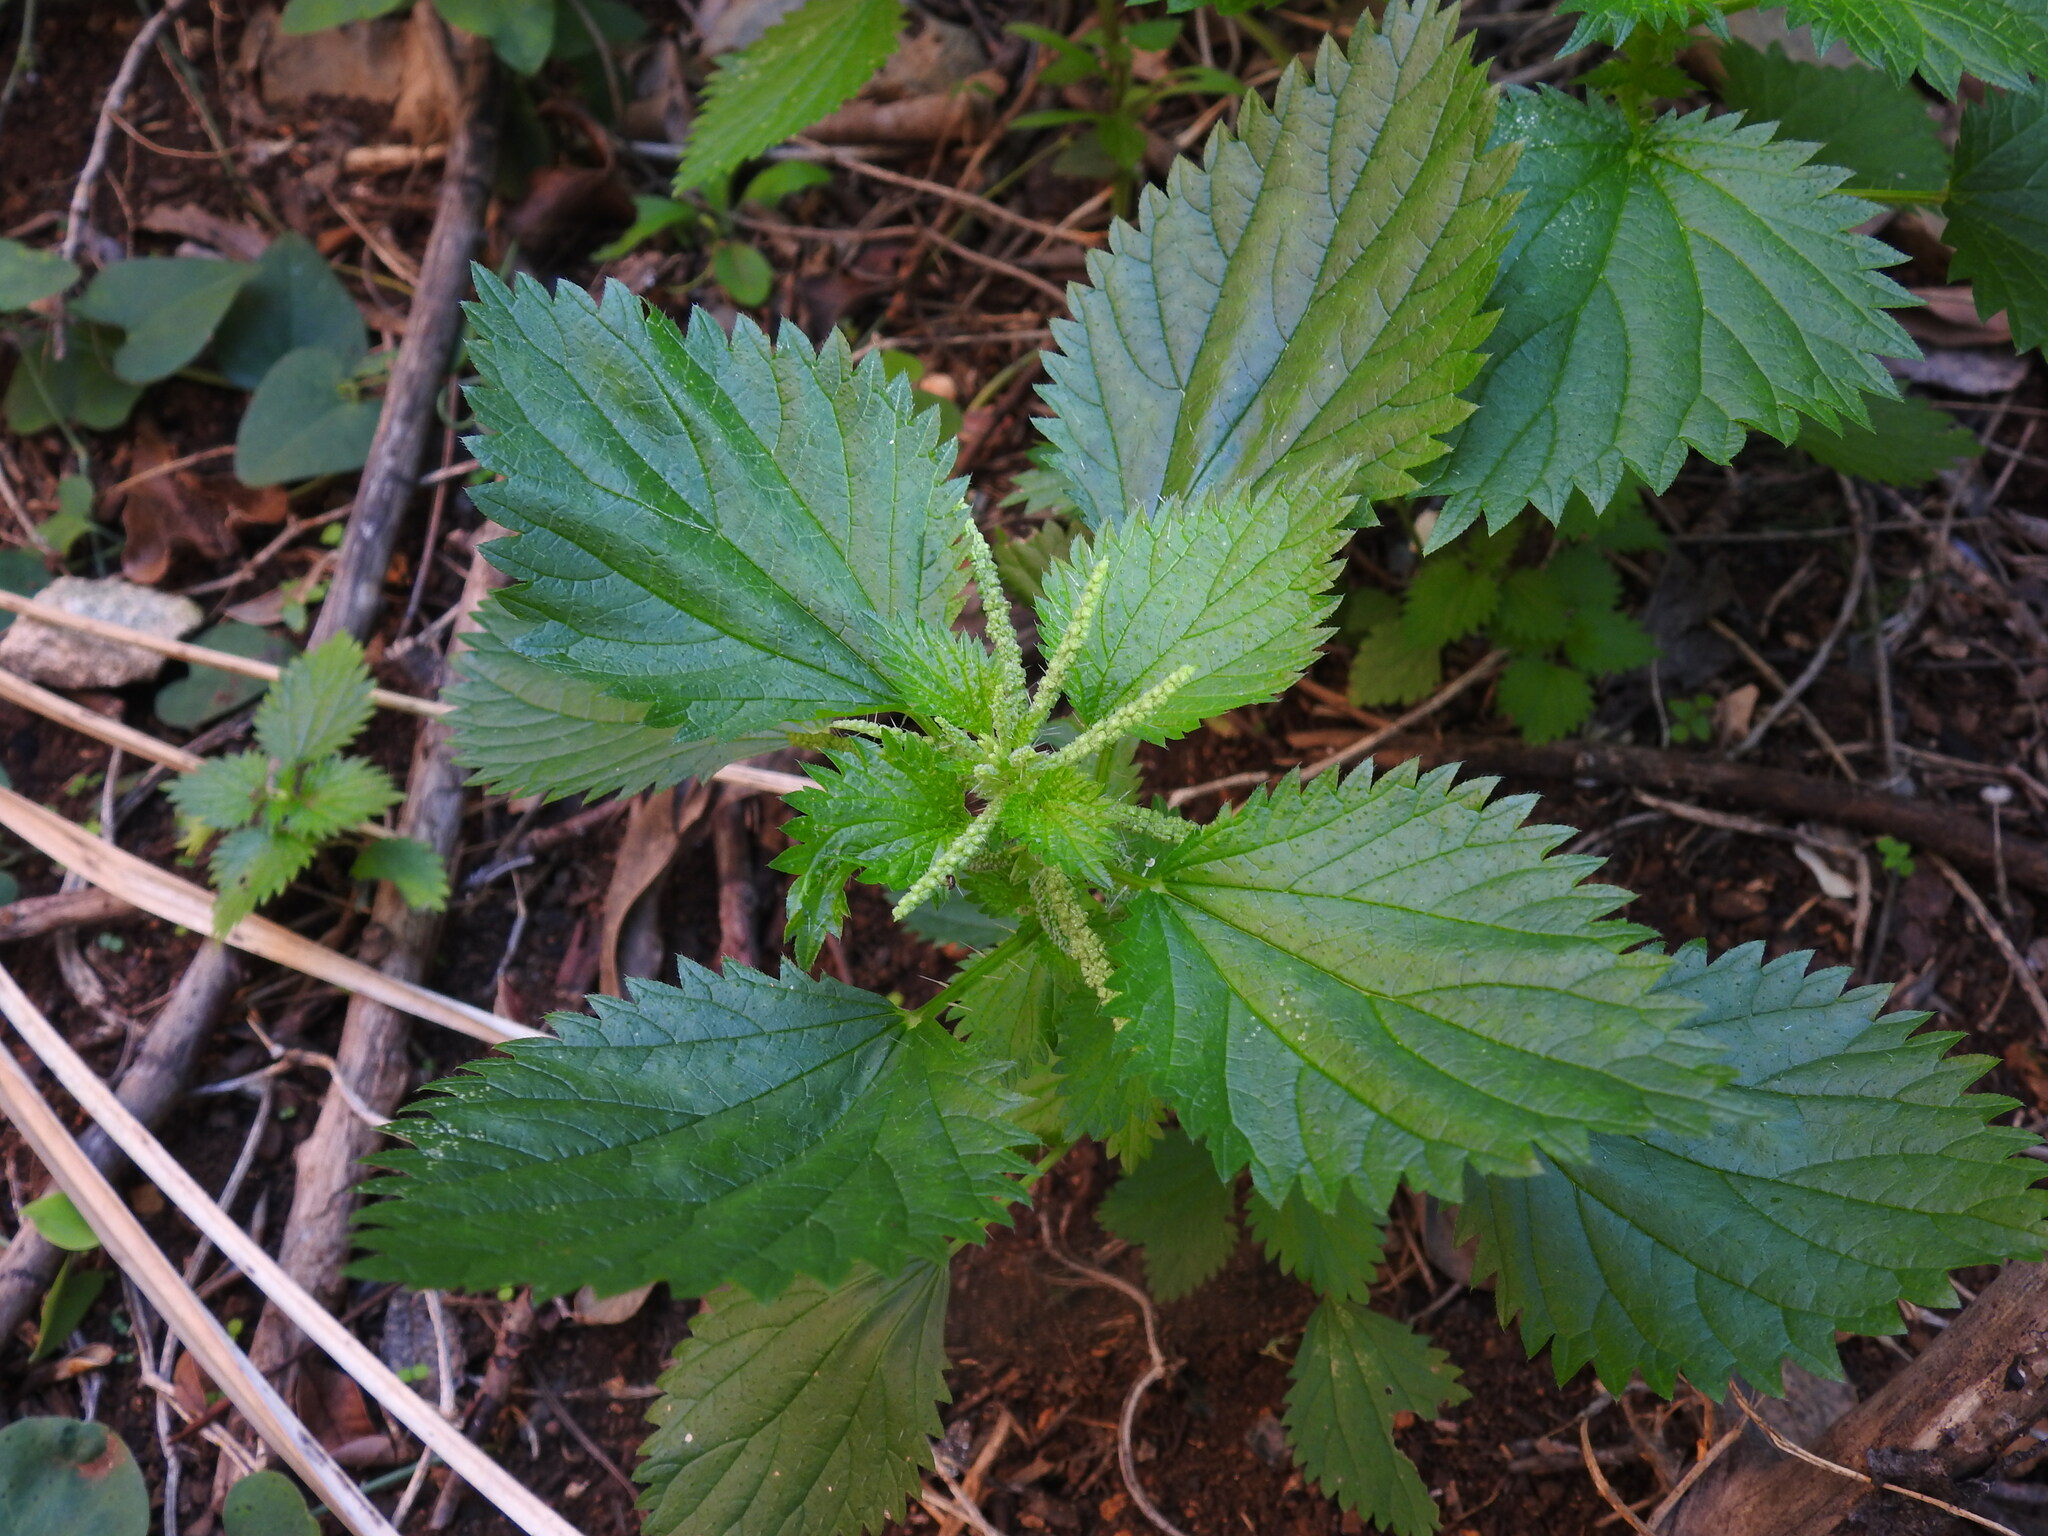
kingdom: Plantae
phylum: Tracheophyta
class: Magnoliopsida
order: Rosales
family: Urticaceae
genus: Urtica
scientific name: Urtica membranacea
